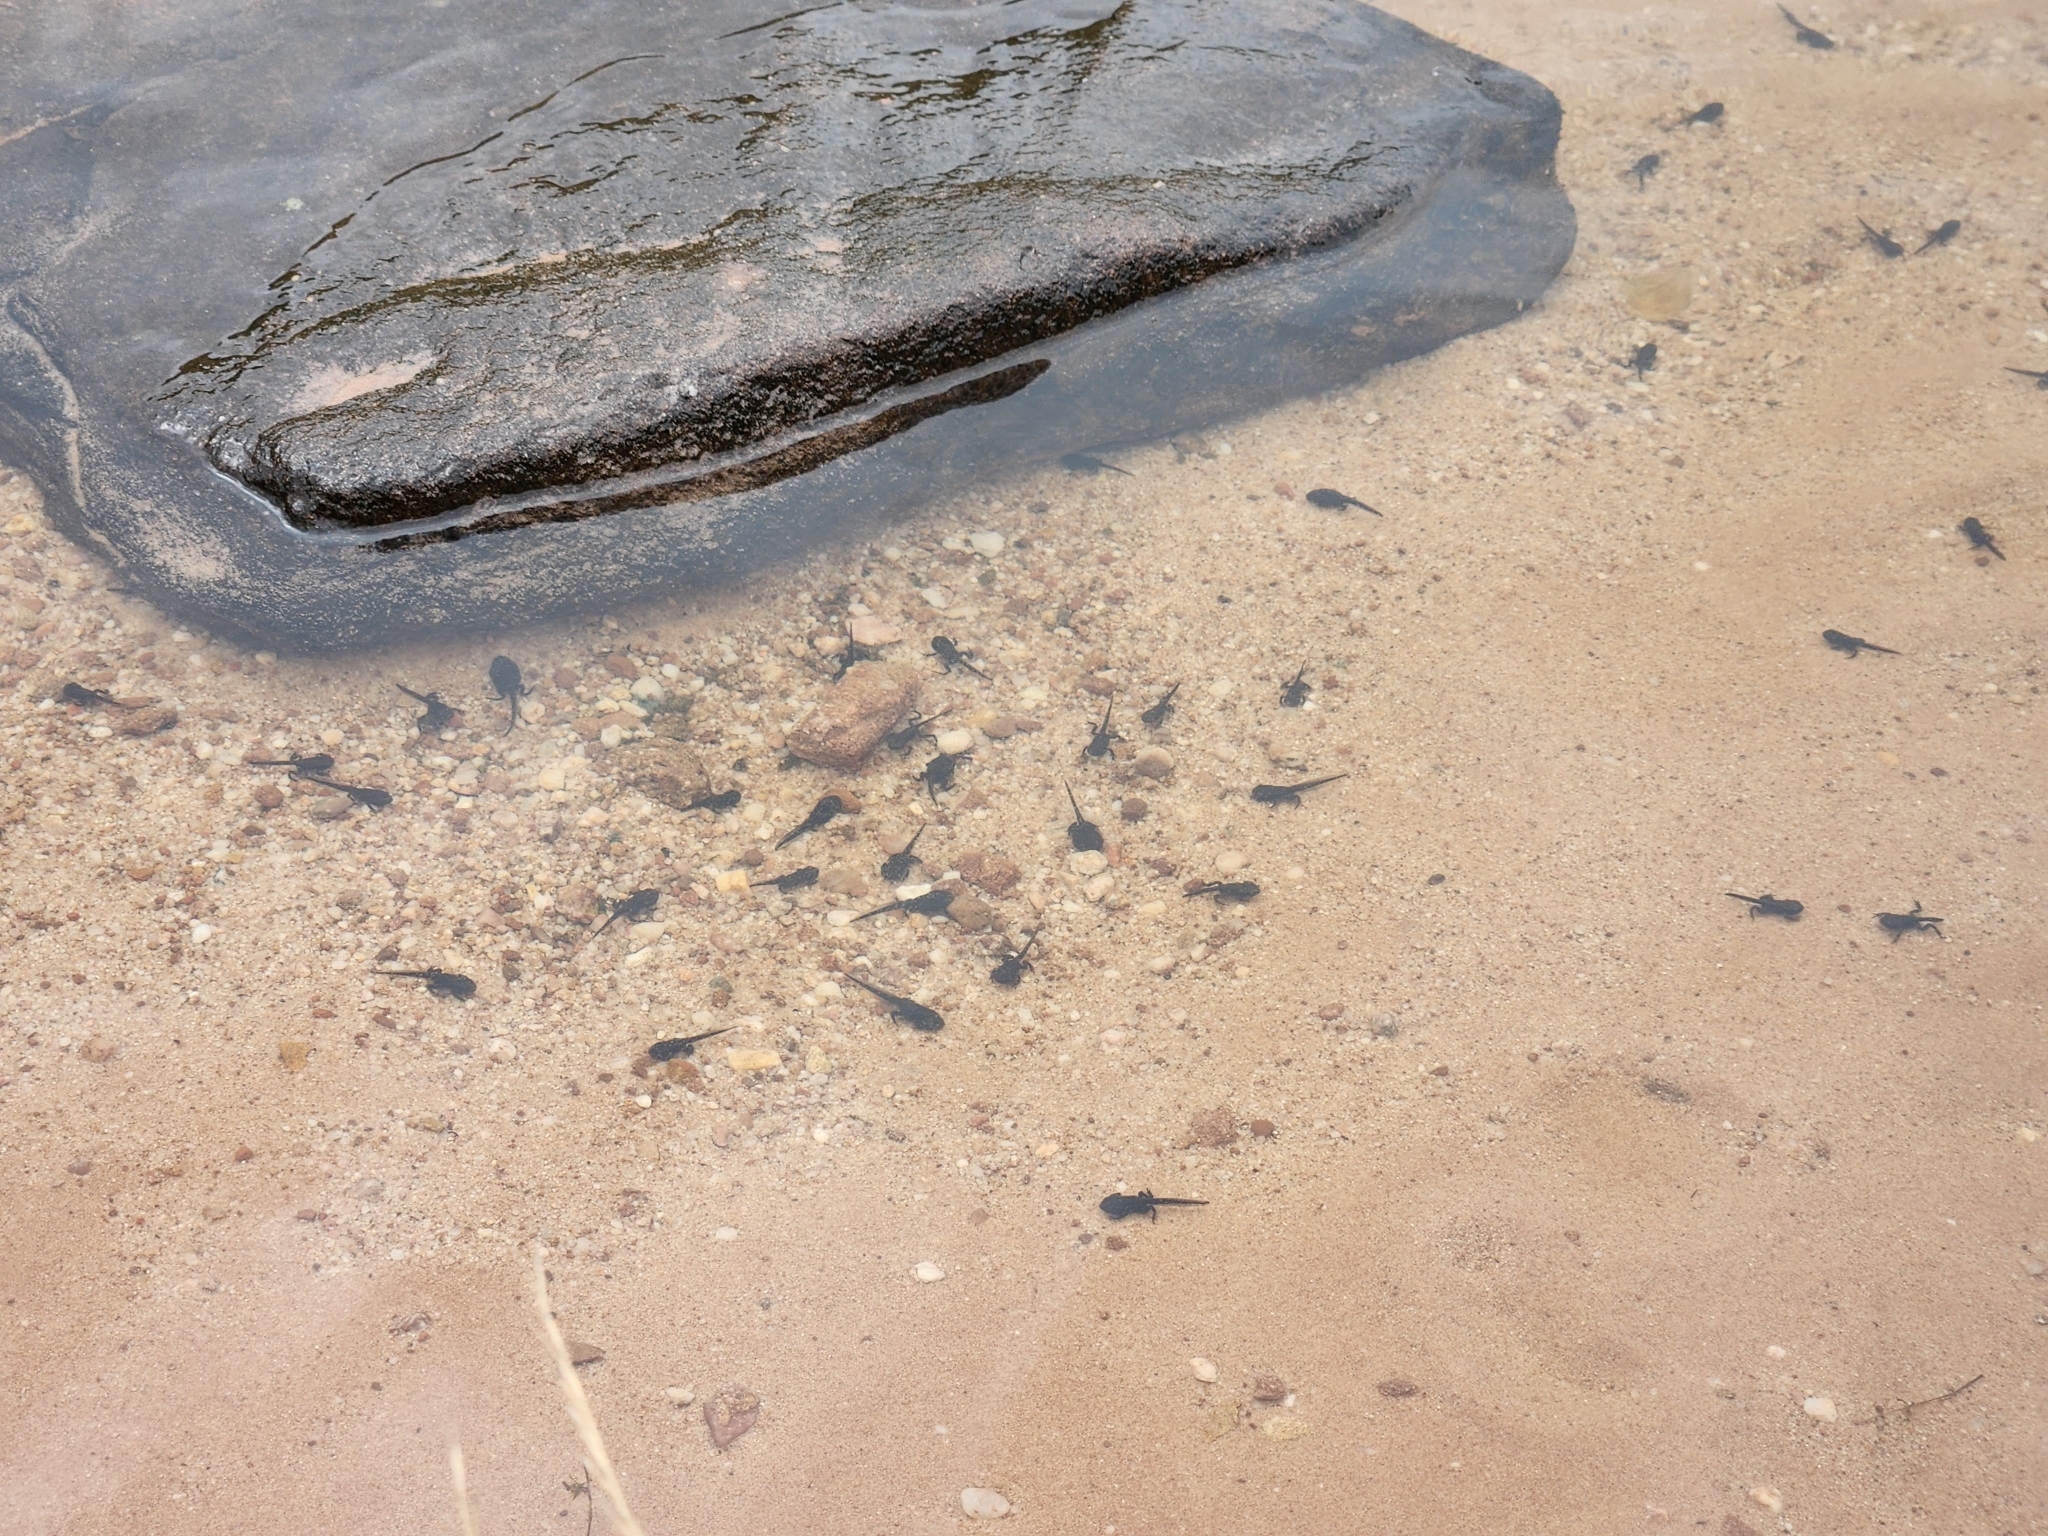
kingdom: Animalia
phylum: Chordata
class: Amphibia
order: Anura
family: Bufonidae
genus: Bufo
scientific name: Bufo bufo
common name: Common toad
